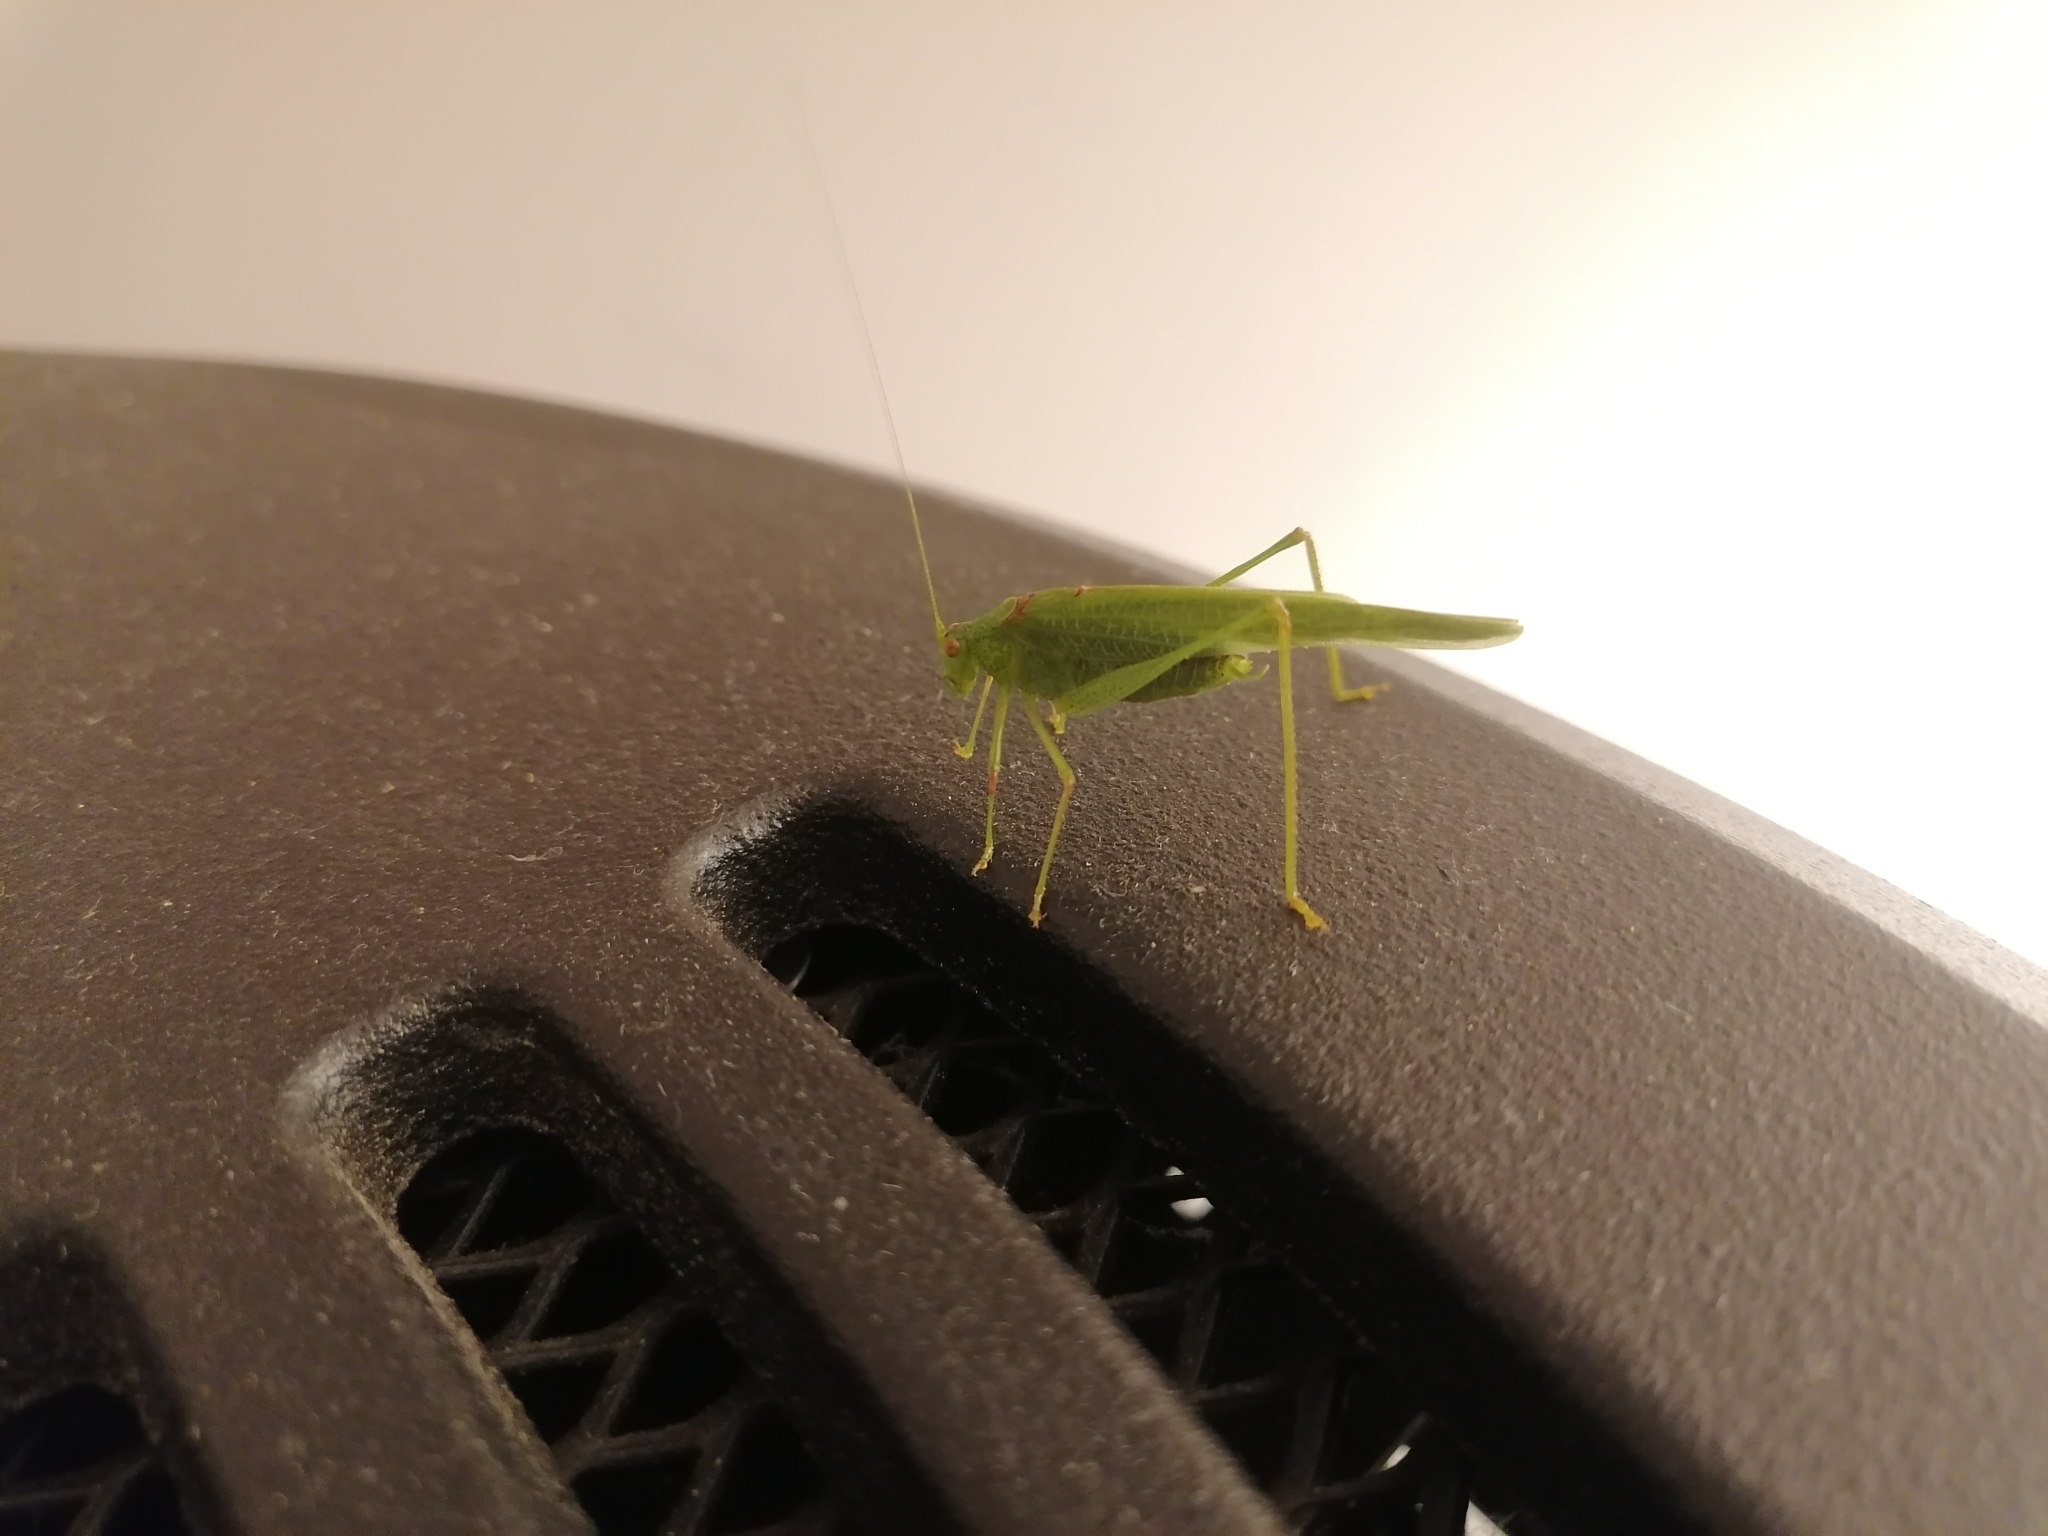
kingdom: Animalia
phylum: Arthropoda
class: Insecta
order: Orthoptera
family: Tettigoniidae
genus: Phaneroptera
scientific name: Phaneroptera nana
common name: Southern sickle bush-cricket
